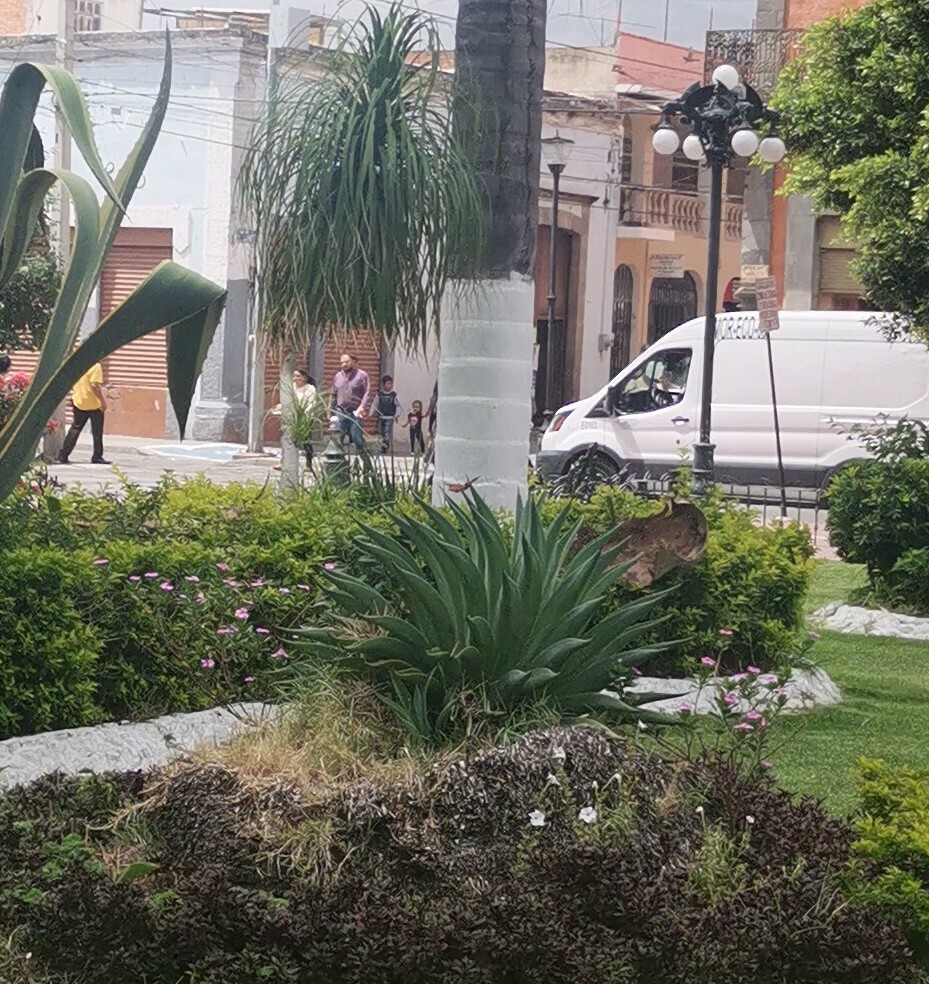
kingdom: Animalia
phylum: Arthropoda
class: Insecta
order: Lepidoptera
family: Nymphalidae
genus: Danaus
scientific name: Danaus plexippus
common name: Monarch
